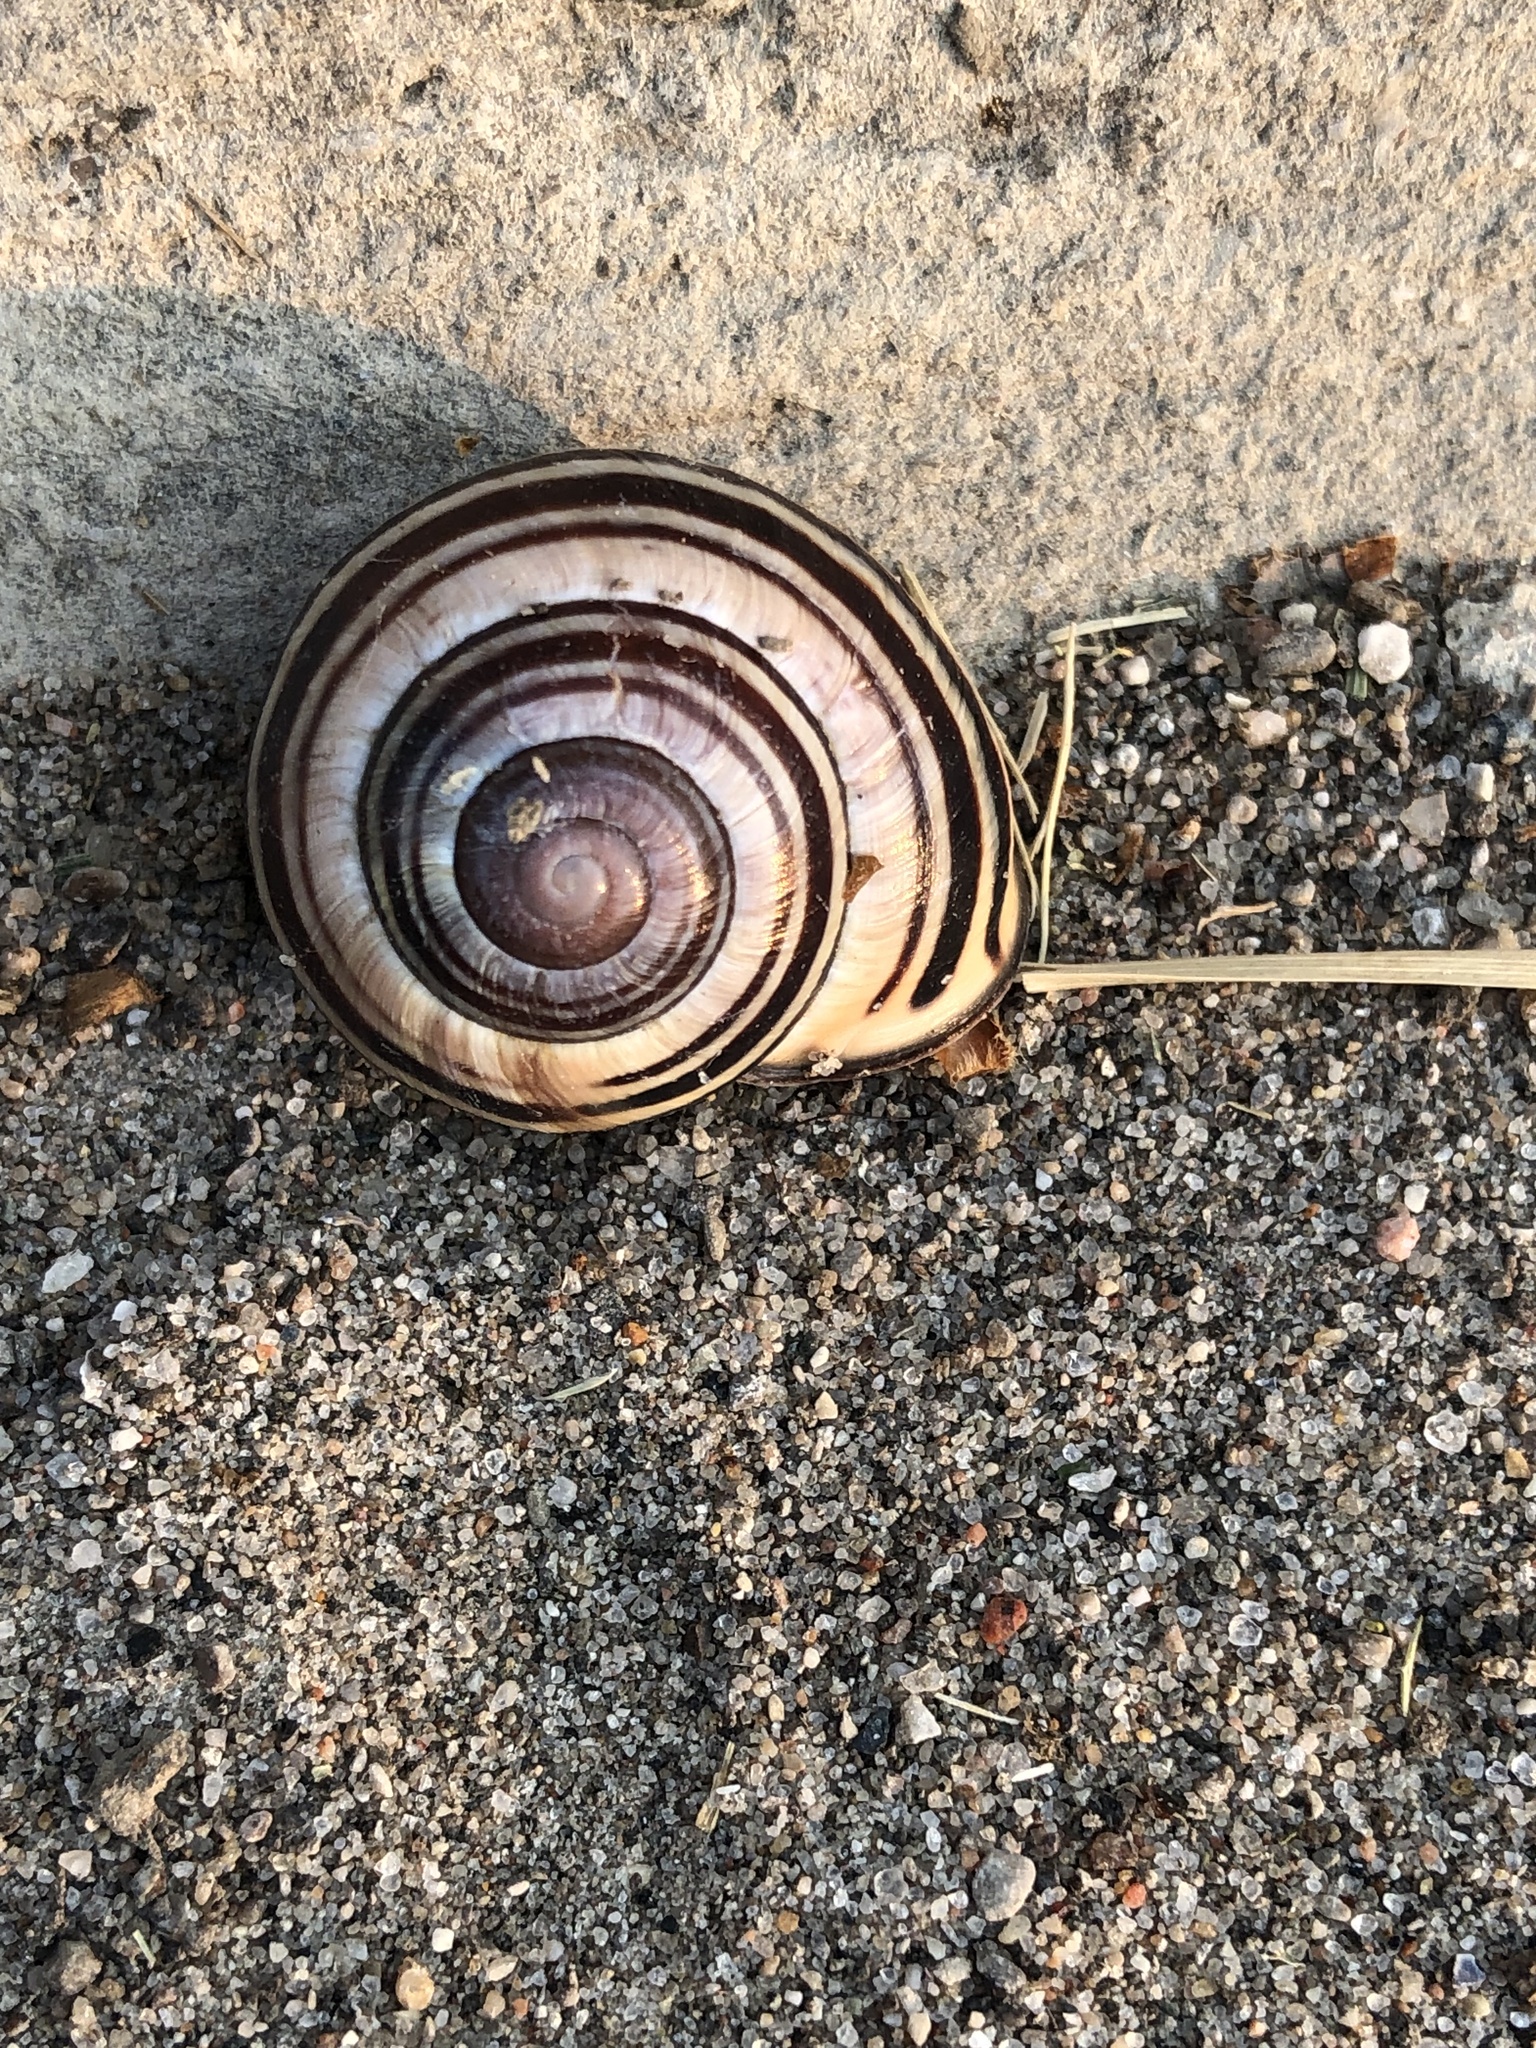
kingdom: Animalia
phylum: Mollusca
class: Gastropoda
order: Stylommatophora
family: Helicidae
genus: Cepaea
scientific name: Cepaea nemoralis
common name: Grovesnail
